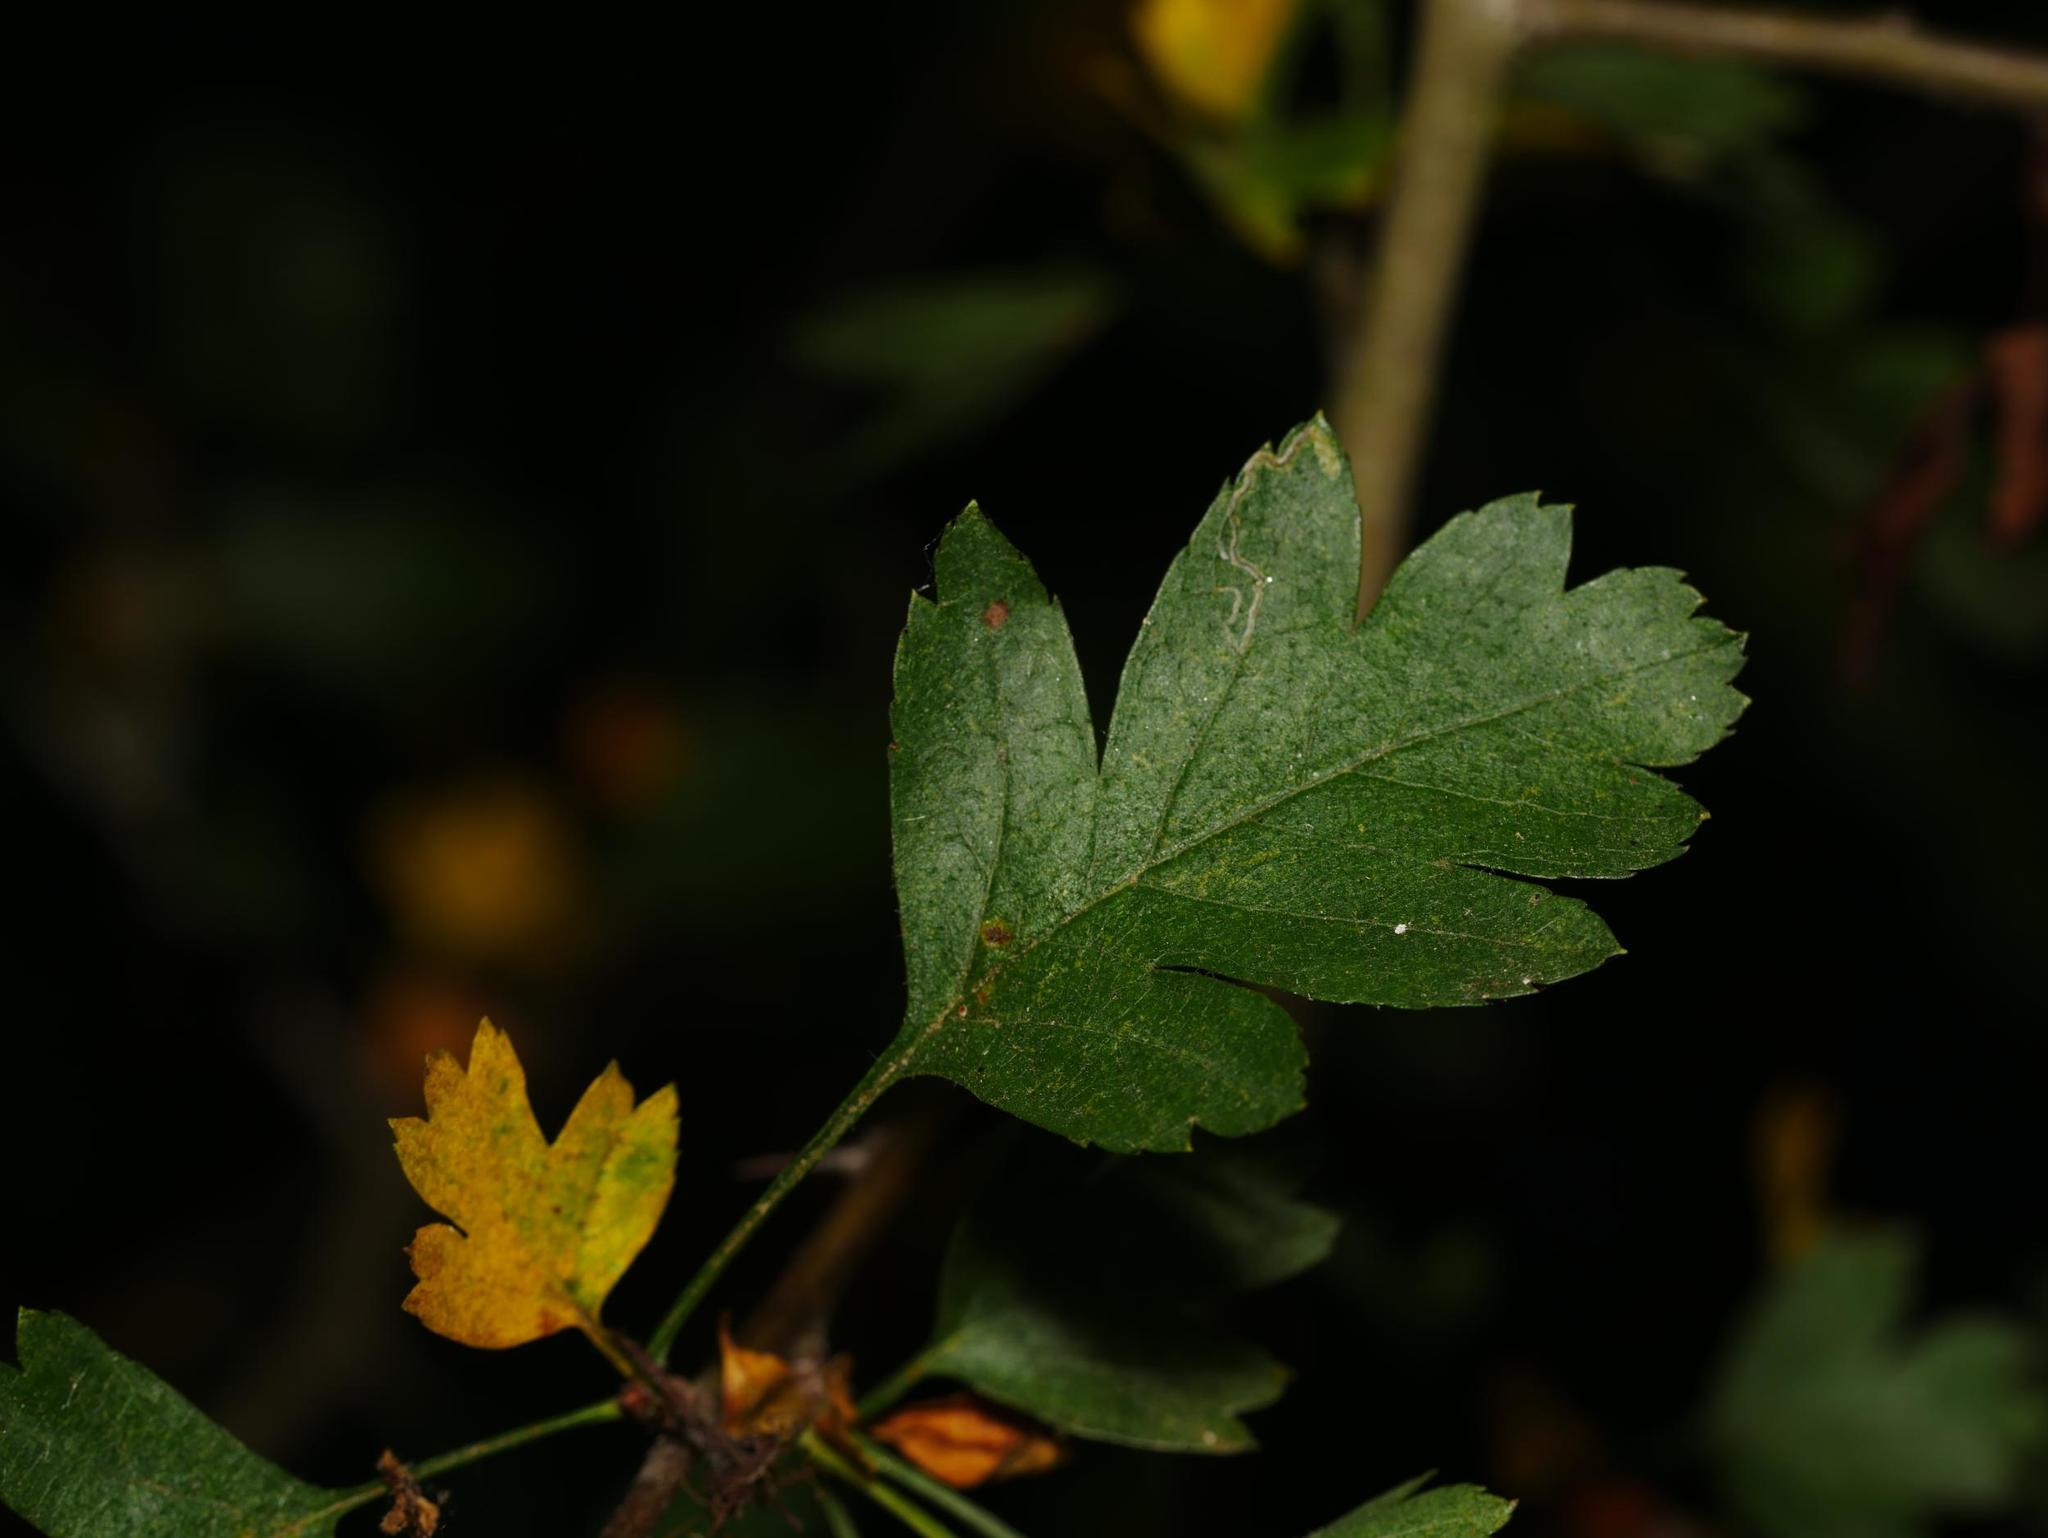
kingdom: Plantae
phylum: Tracheophyta
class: Magnoliopsida
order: Rosales
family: Rosaceae
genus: Crataegus
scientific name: Crataegus monogyna
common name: Hawthorn
